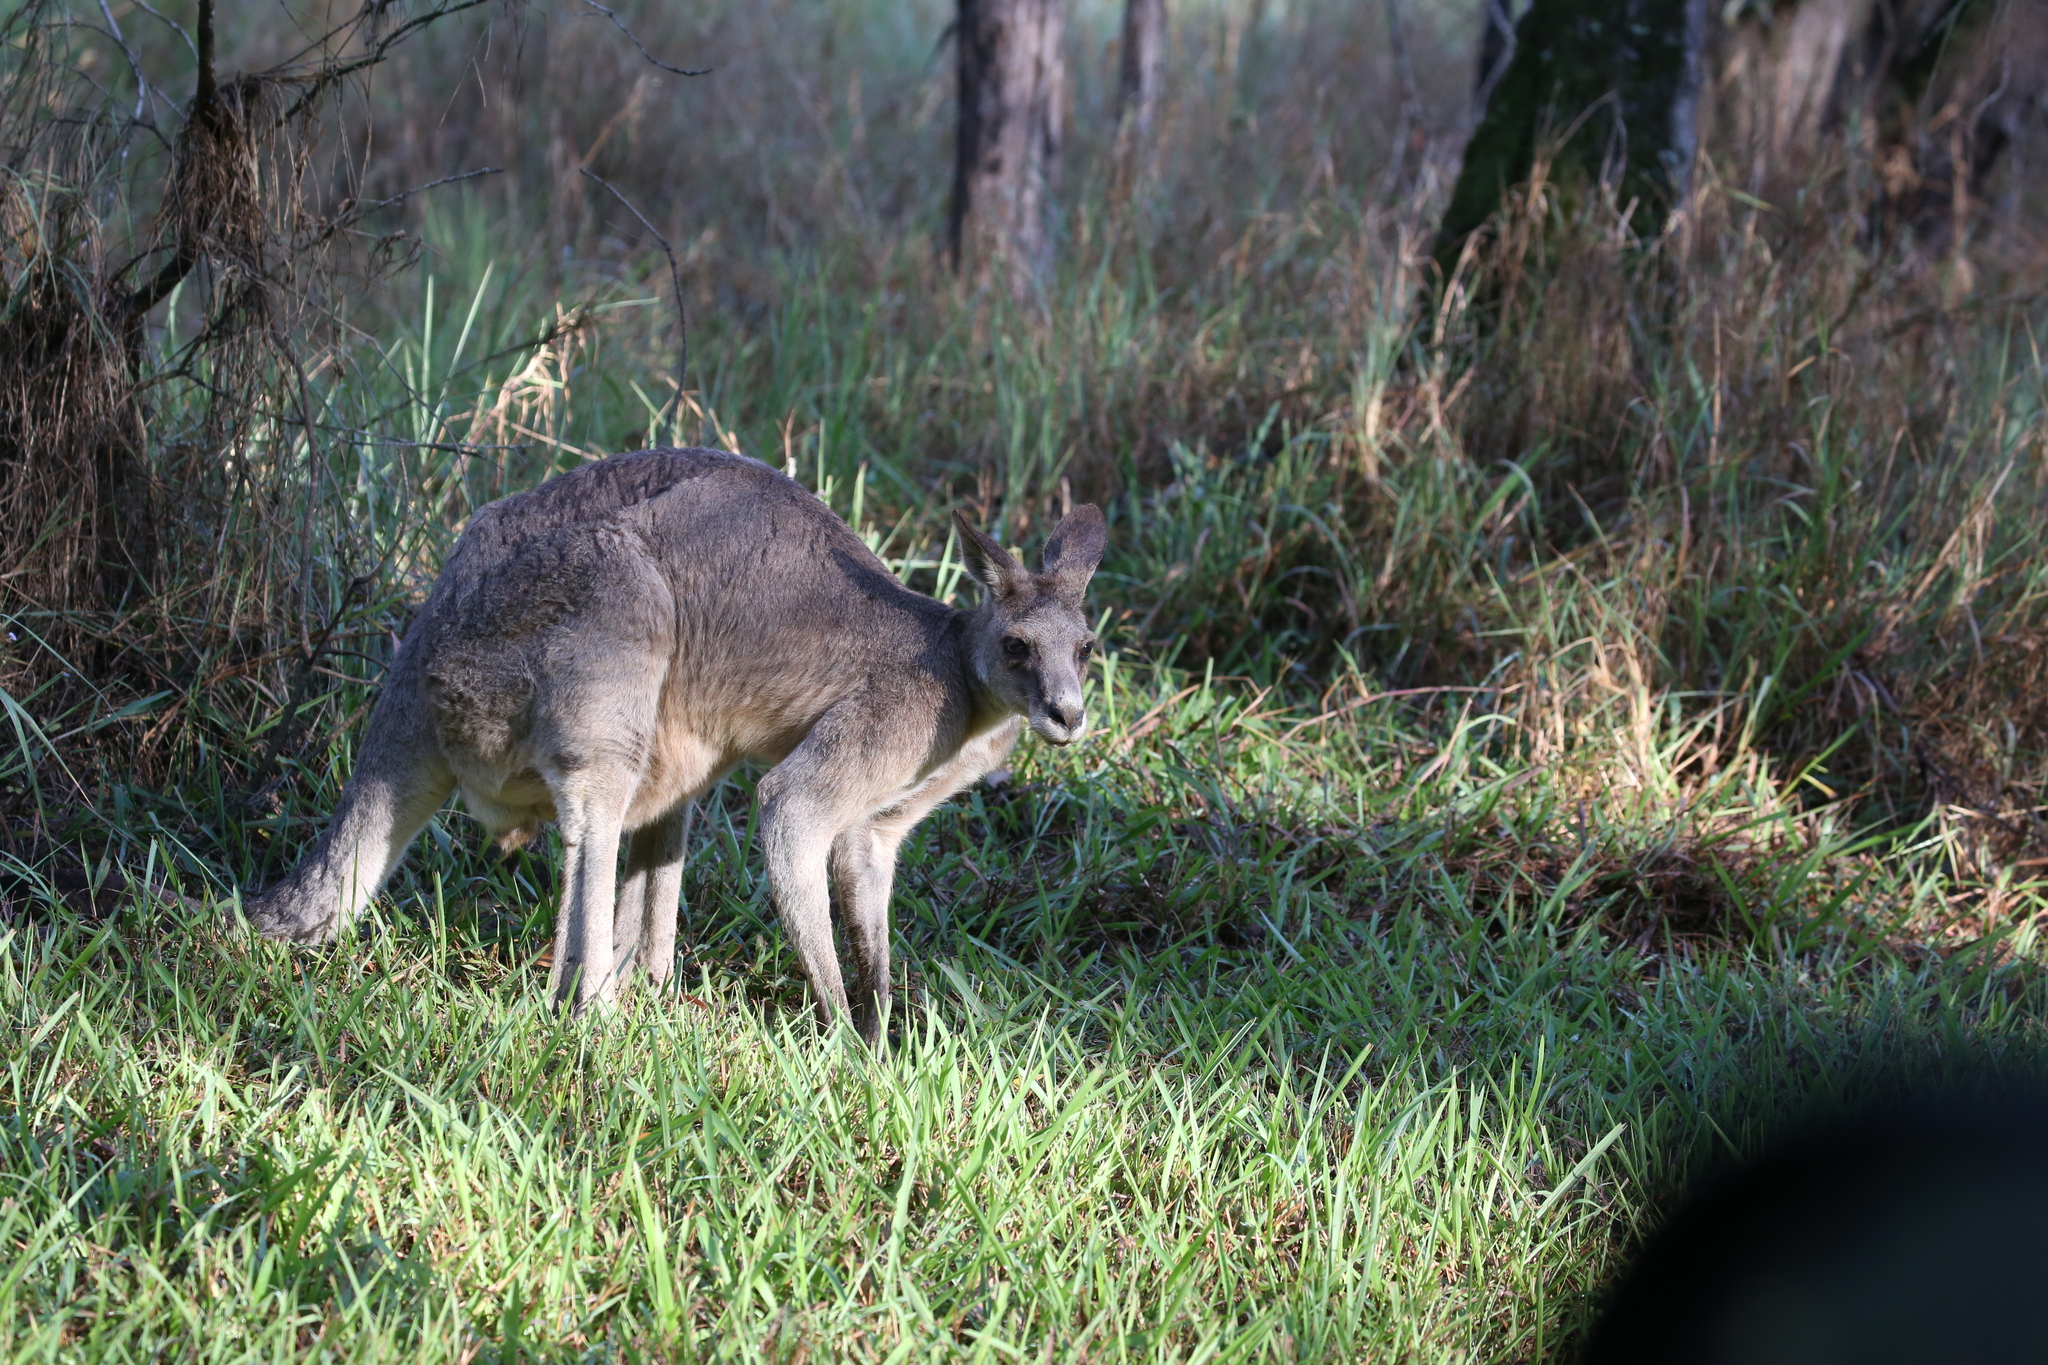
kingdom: Animalia
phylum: Chordata
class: Mammalia
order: Diprotodontia
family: Macropodidae
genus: Macropus
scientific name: Macropus giganteus
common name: Eastern grey kangaroo
